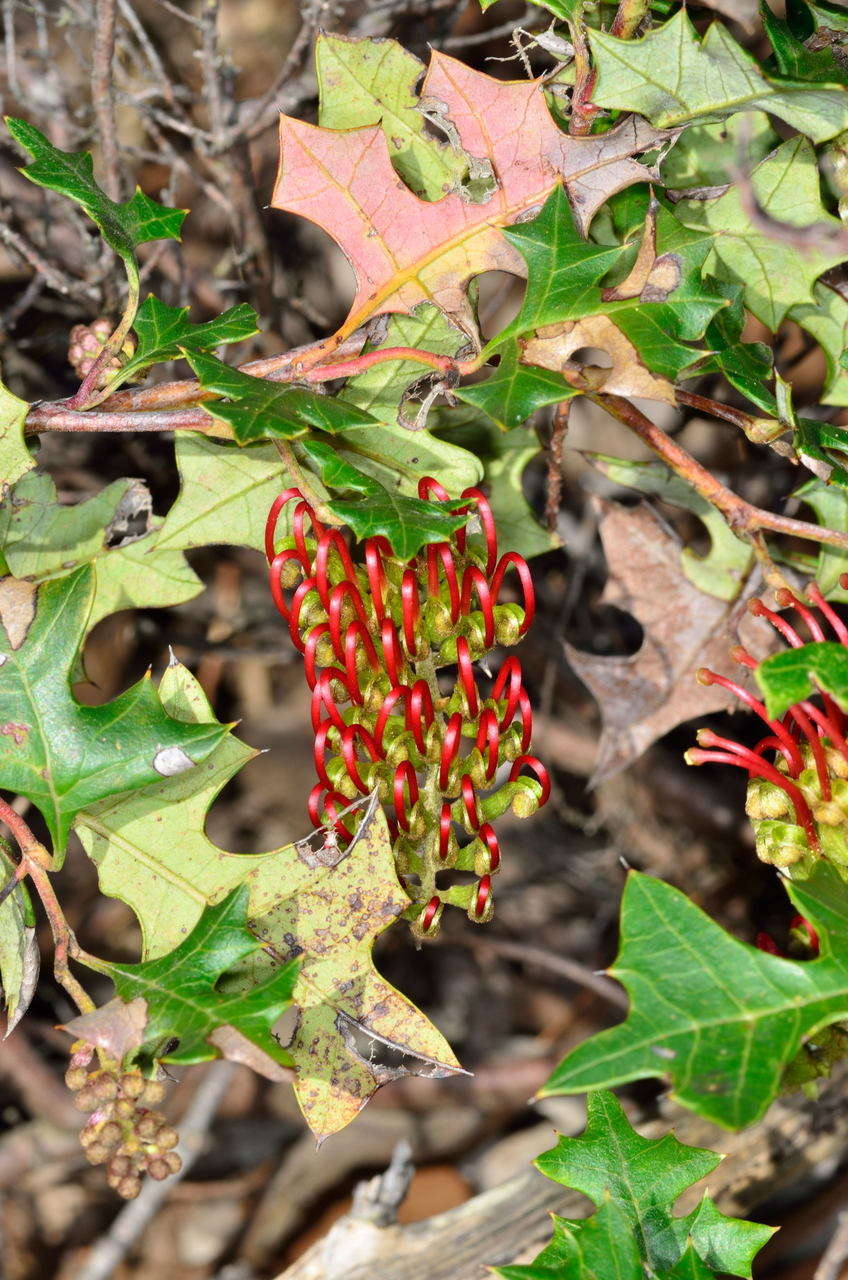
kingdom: Plantae
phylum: Tracheophyta
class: Magnoliopsida
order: Proteales
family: Proteaceae
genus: Grevillea
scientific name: Grevillea steiglitziana
